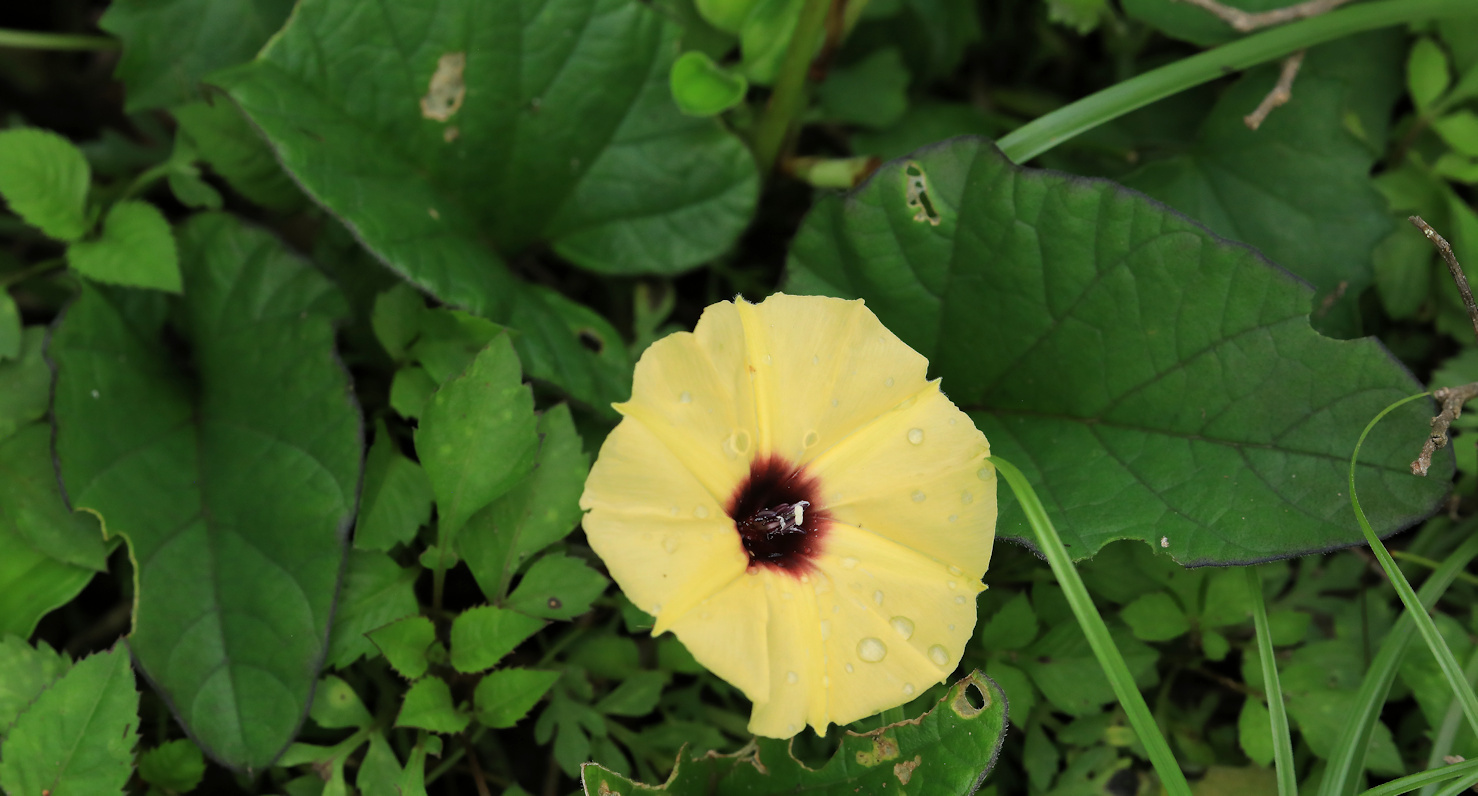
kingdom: Plantae
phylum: Tracheophyta
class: Magnoliopsida
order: Solanales
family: Convolvulaceae
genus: Hewittia
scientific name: Hewittia malabarica
